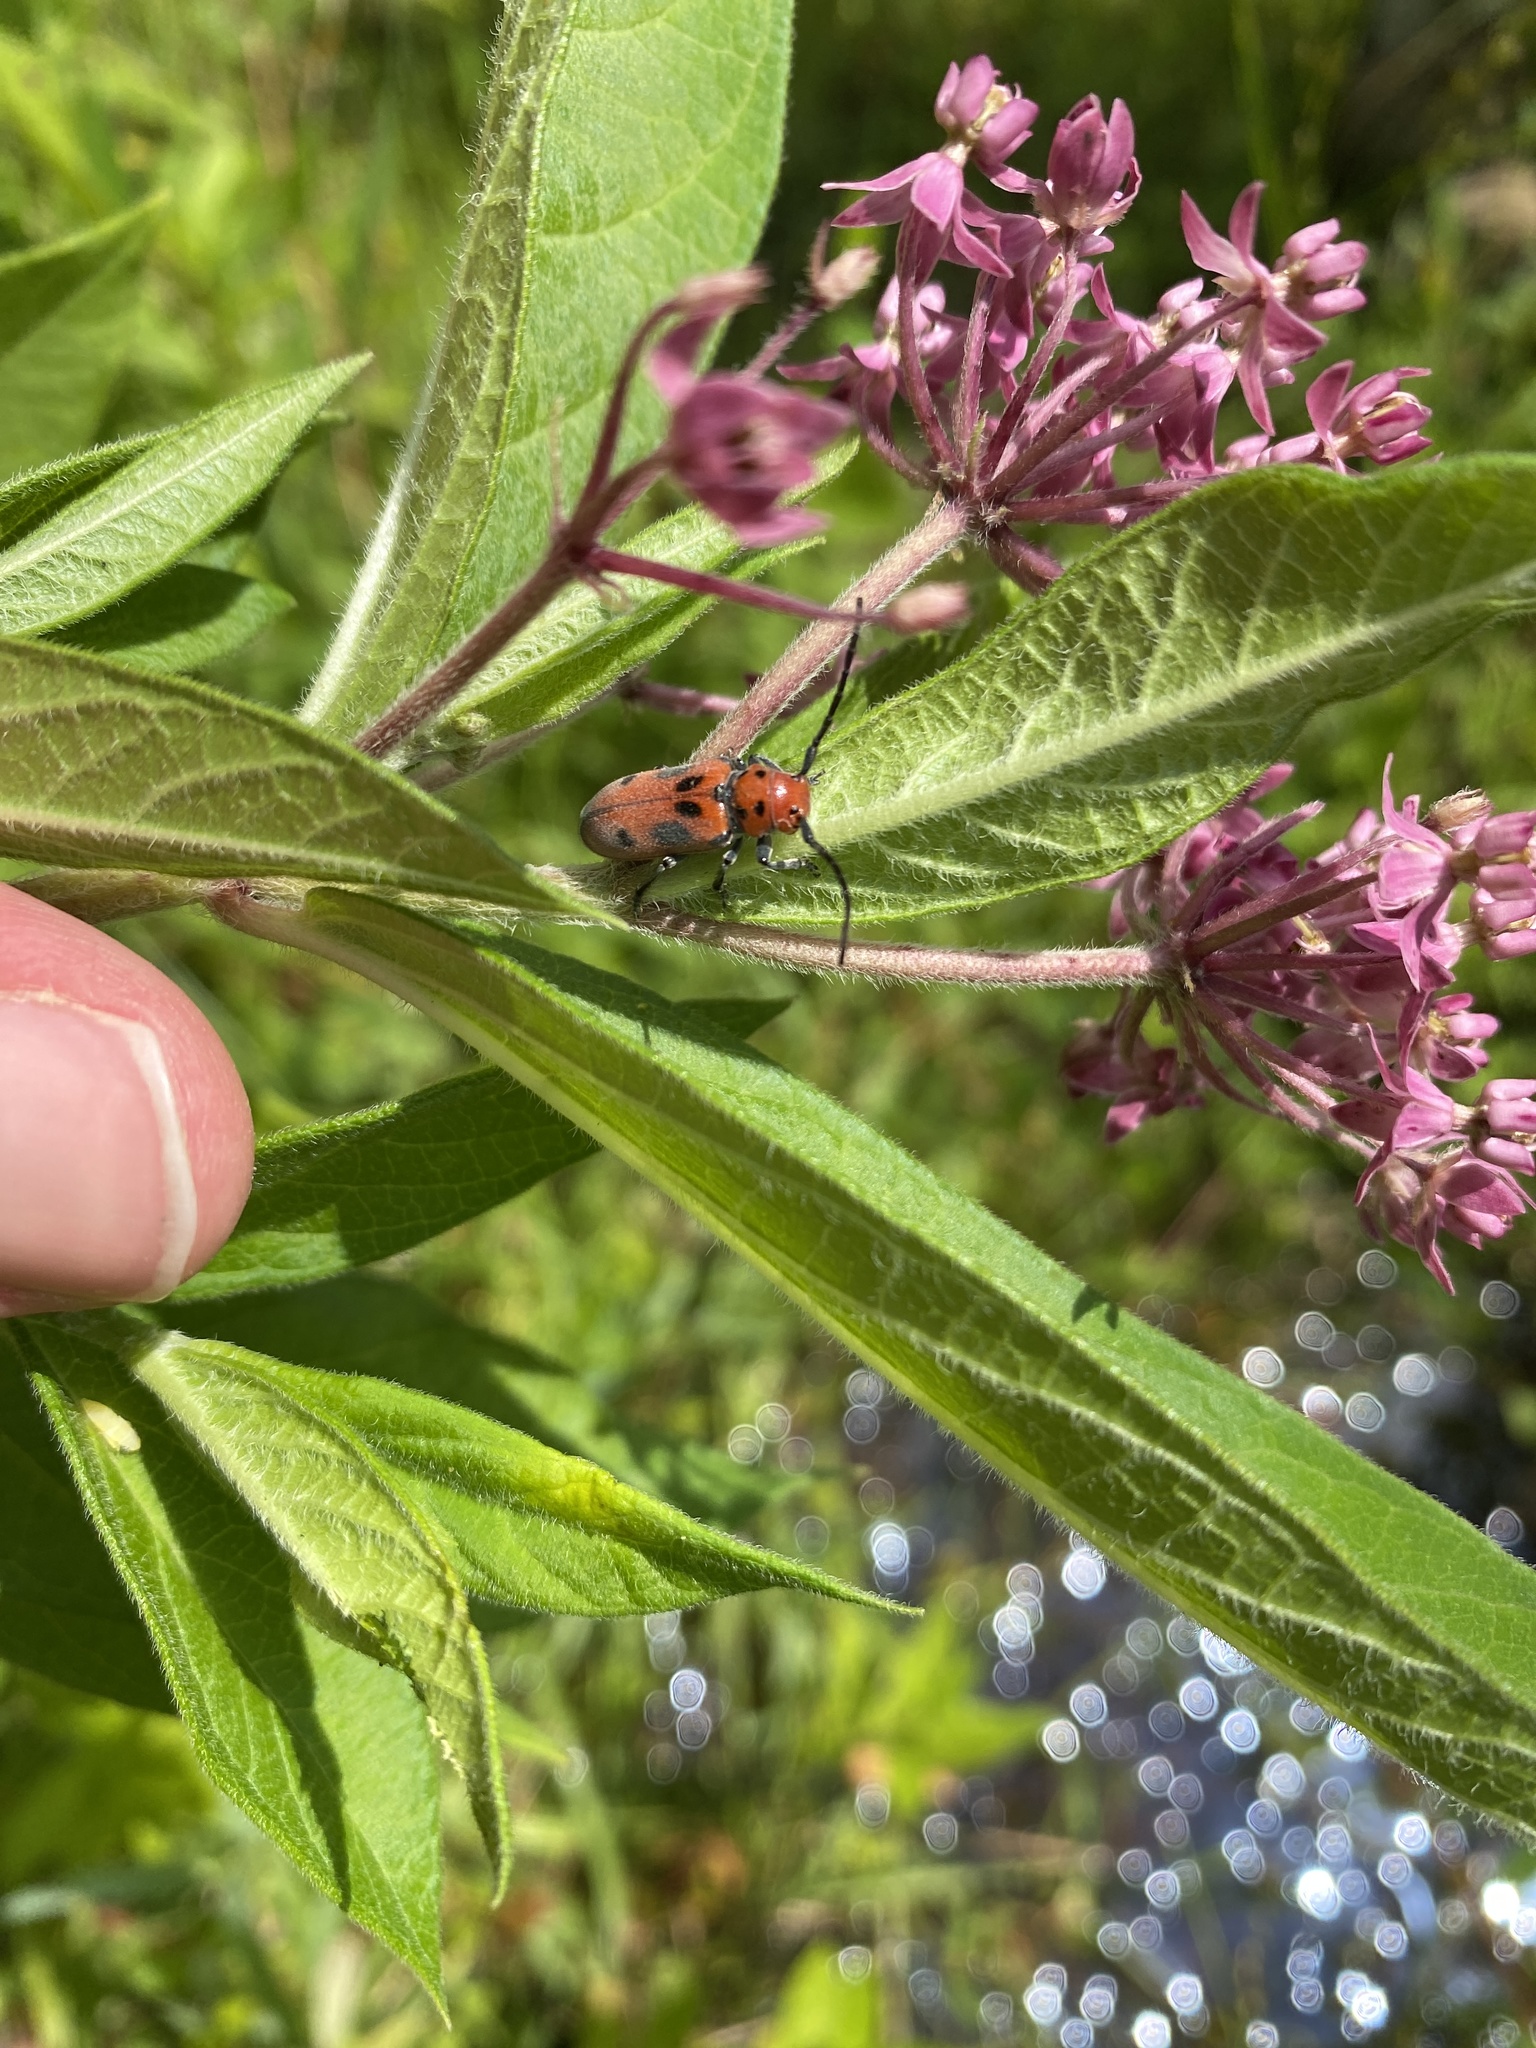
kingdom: Animalia
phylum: Arthropoda
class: Insecta
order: Coleoptera
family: Cerambycidae
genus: Tetraopes
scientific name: Tetraopes tetrophthalmus
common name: Red milkweed beetle
